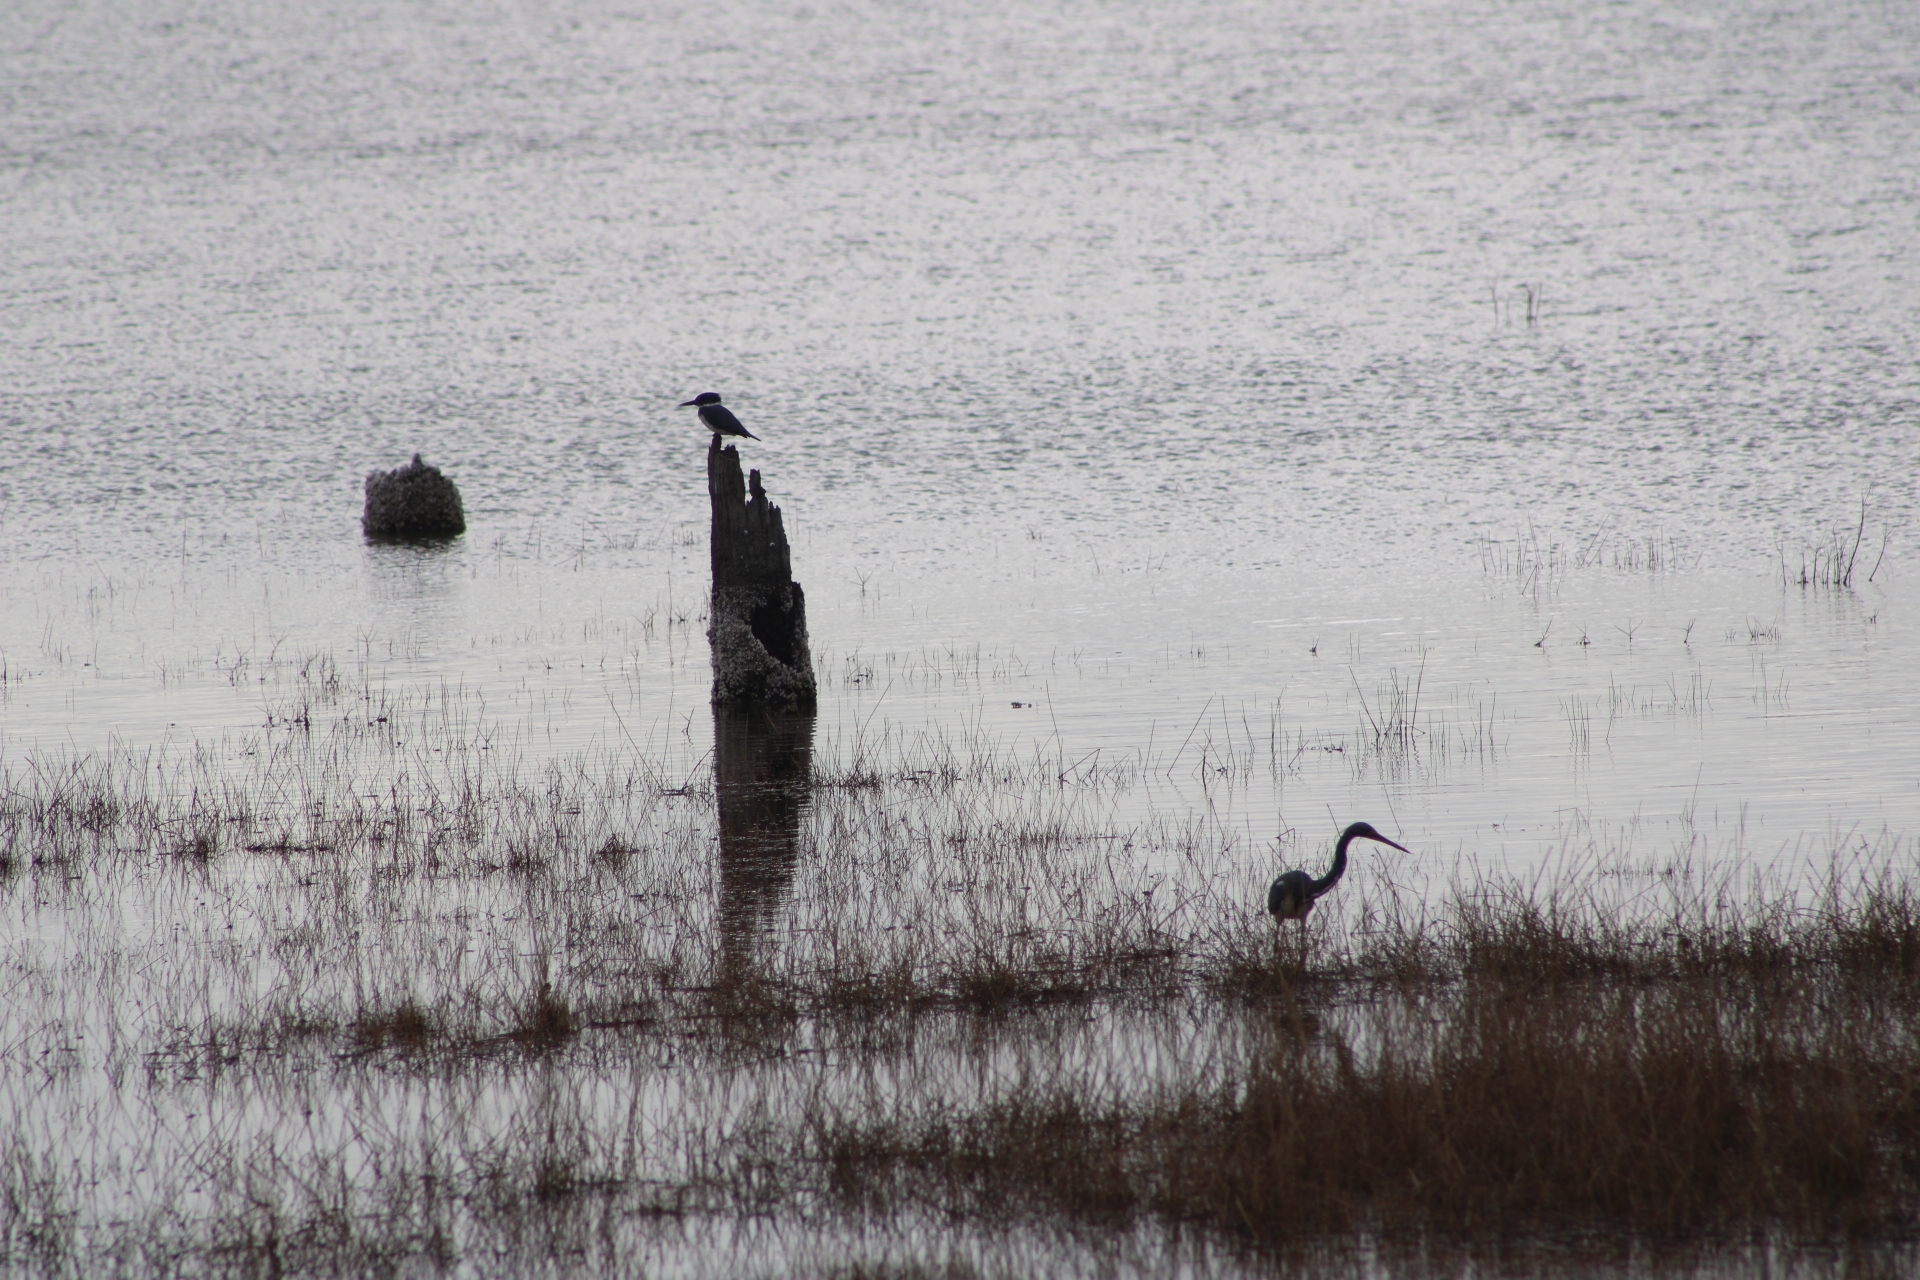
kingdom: Animalia
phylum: Chordata
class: Aves
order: Coraciiformes
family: Alcedinidae
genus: Megaceryle
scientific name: Megaceryle alcyon
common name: Belted kingfisher
